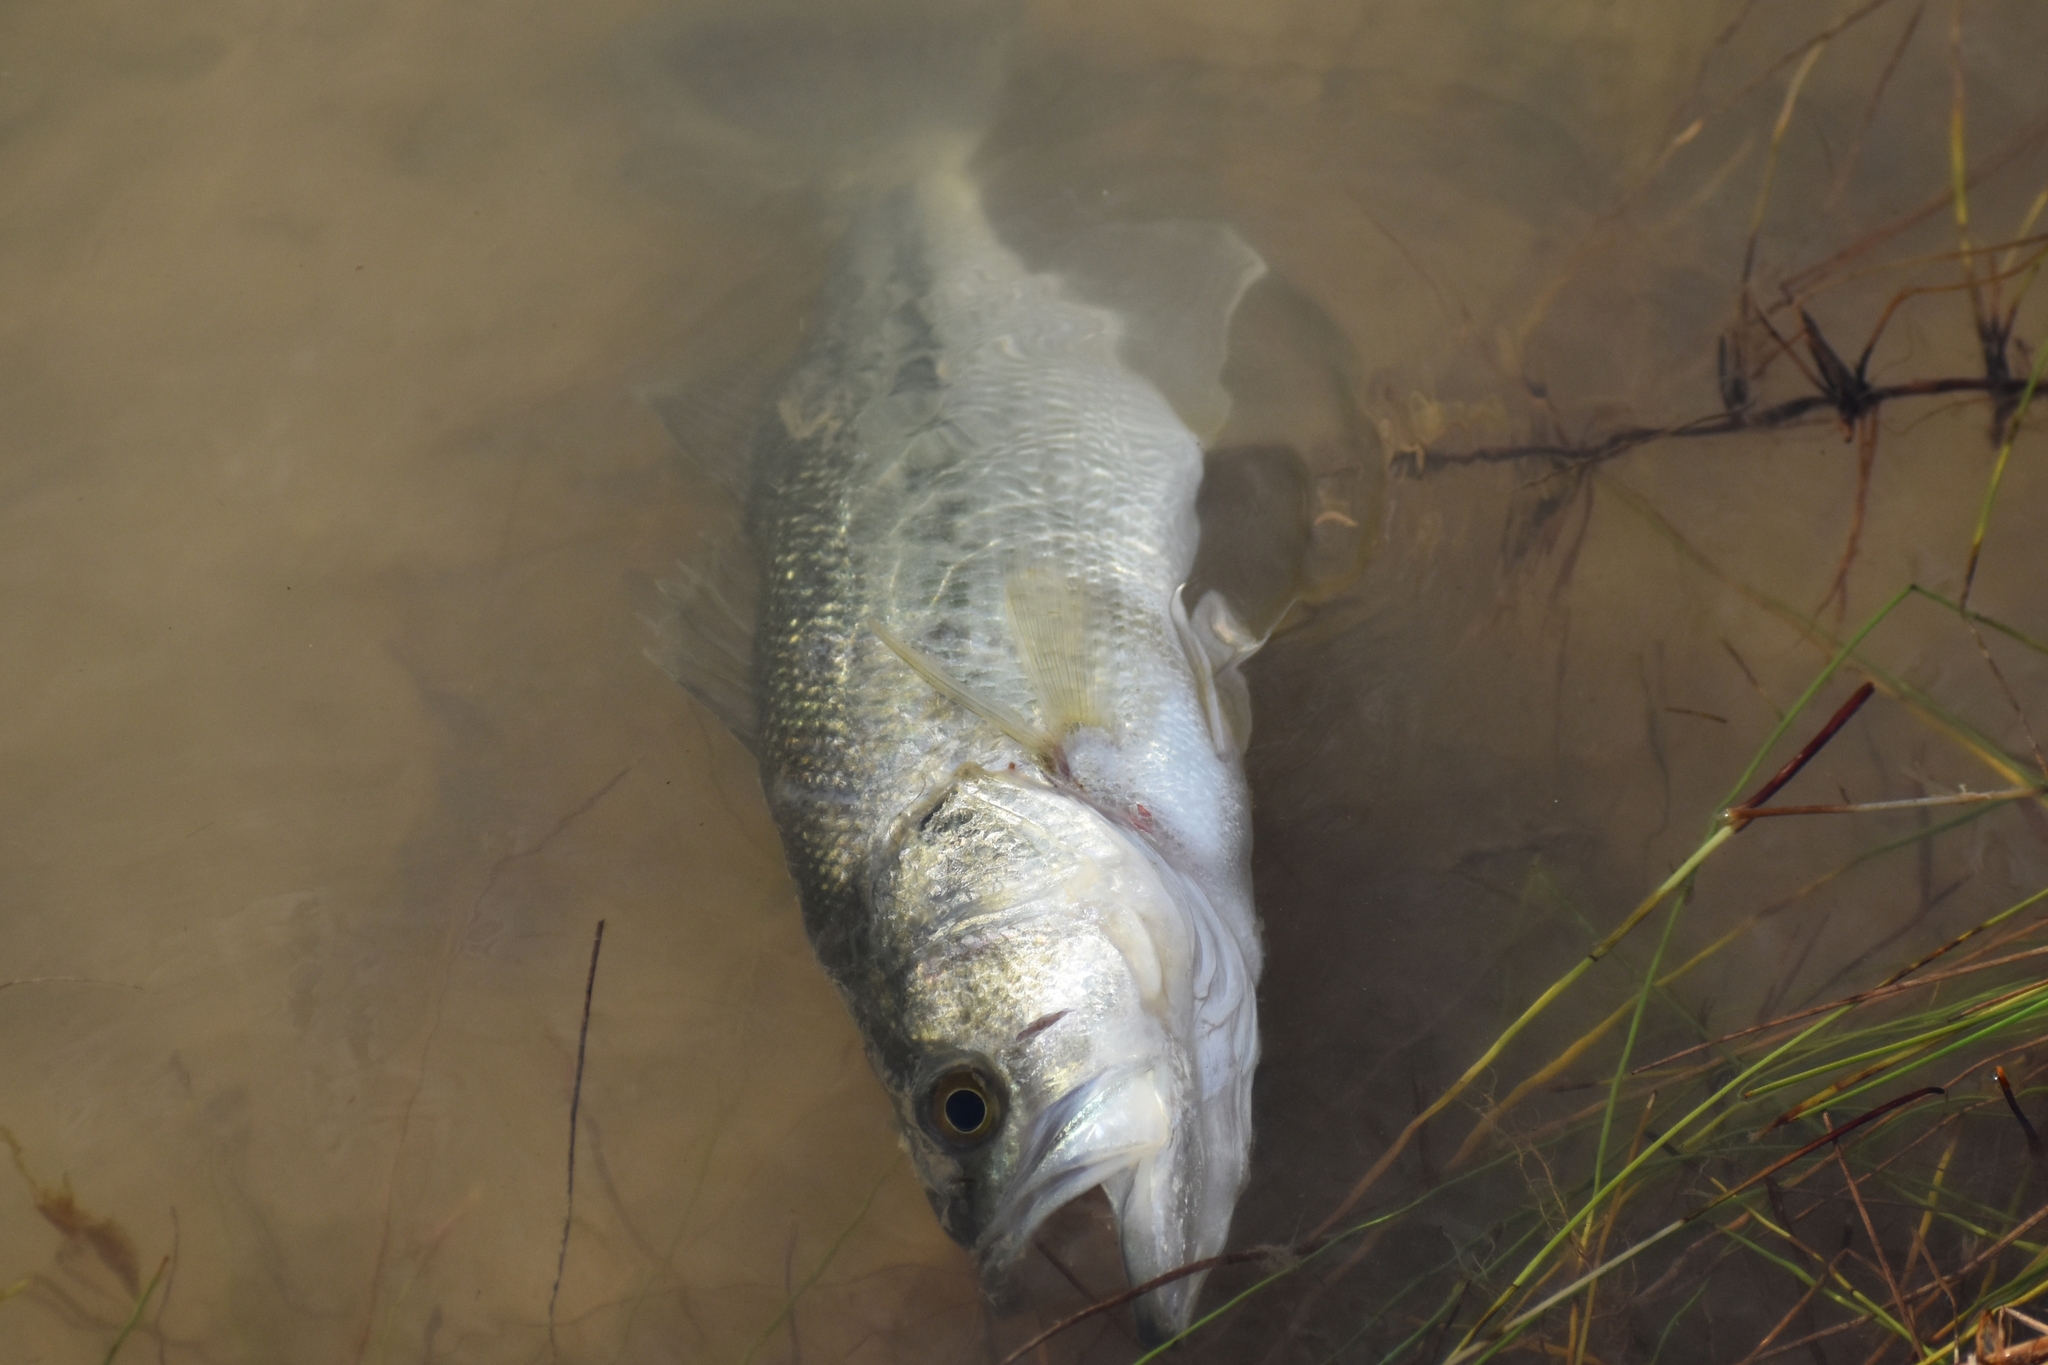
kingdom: Animalia
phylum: Chordata
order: Perciformes
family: Centrarchidae
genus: Micropterus
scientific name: Micropterus
